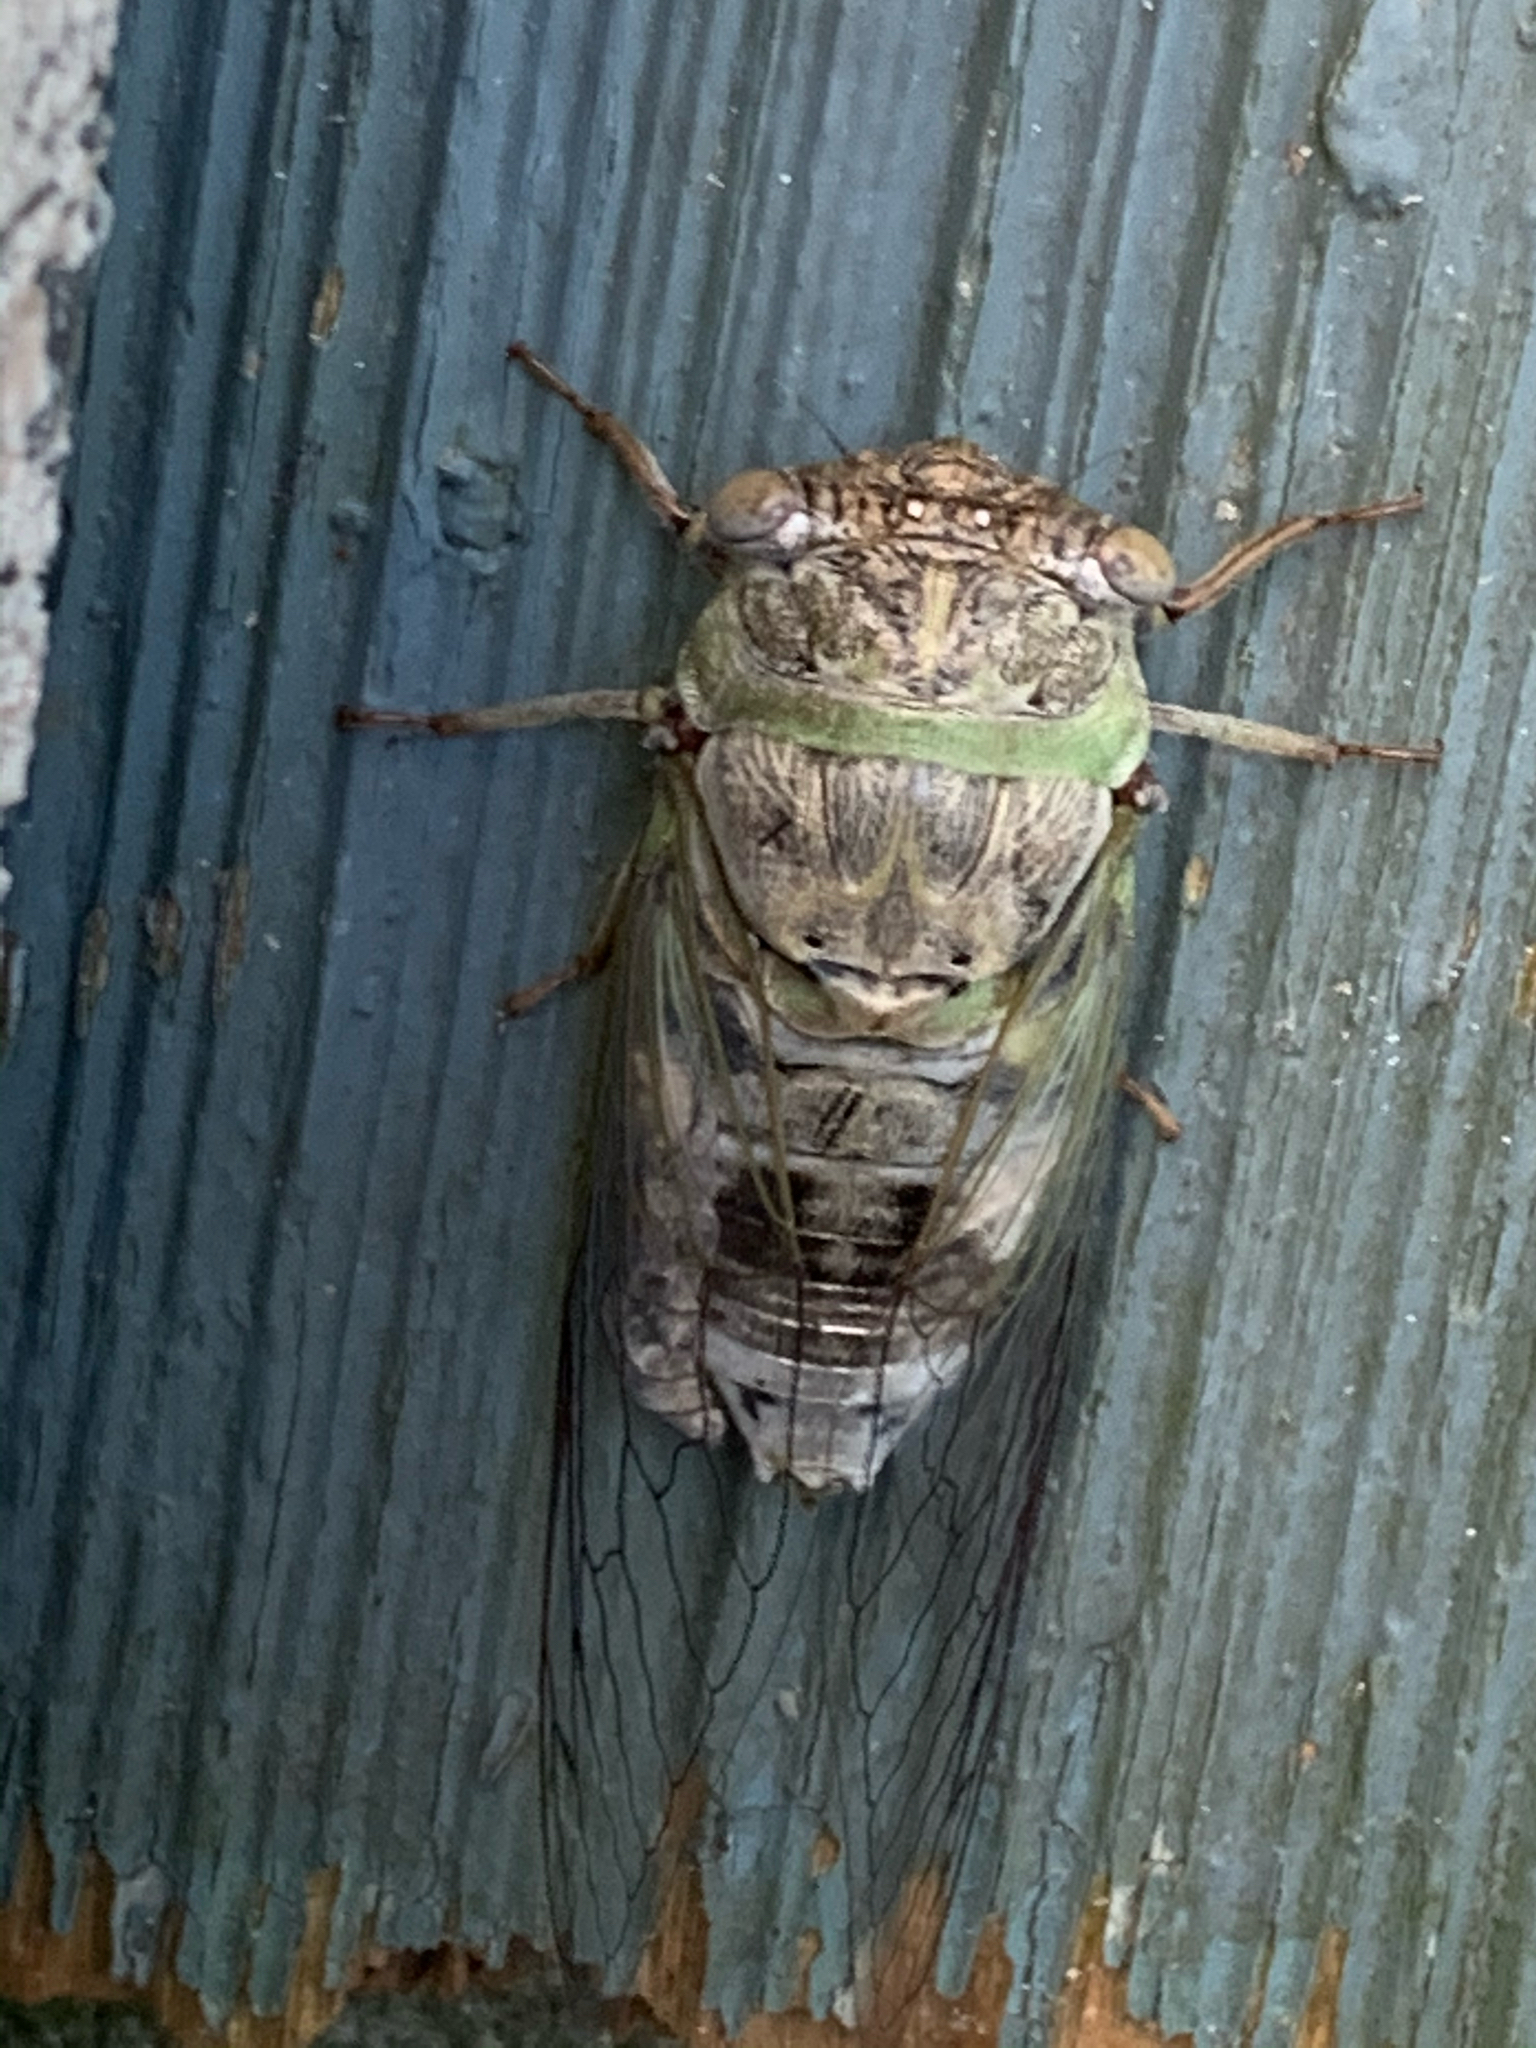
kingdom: Animalia
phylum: Arthropoda
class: Insecta
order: Hemiptera
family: Cicadidae
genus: Diceroprocta
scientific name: Diceroprocta grossa
